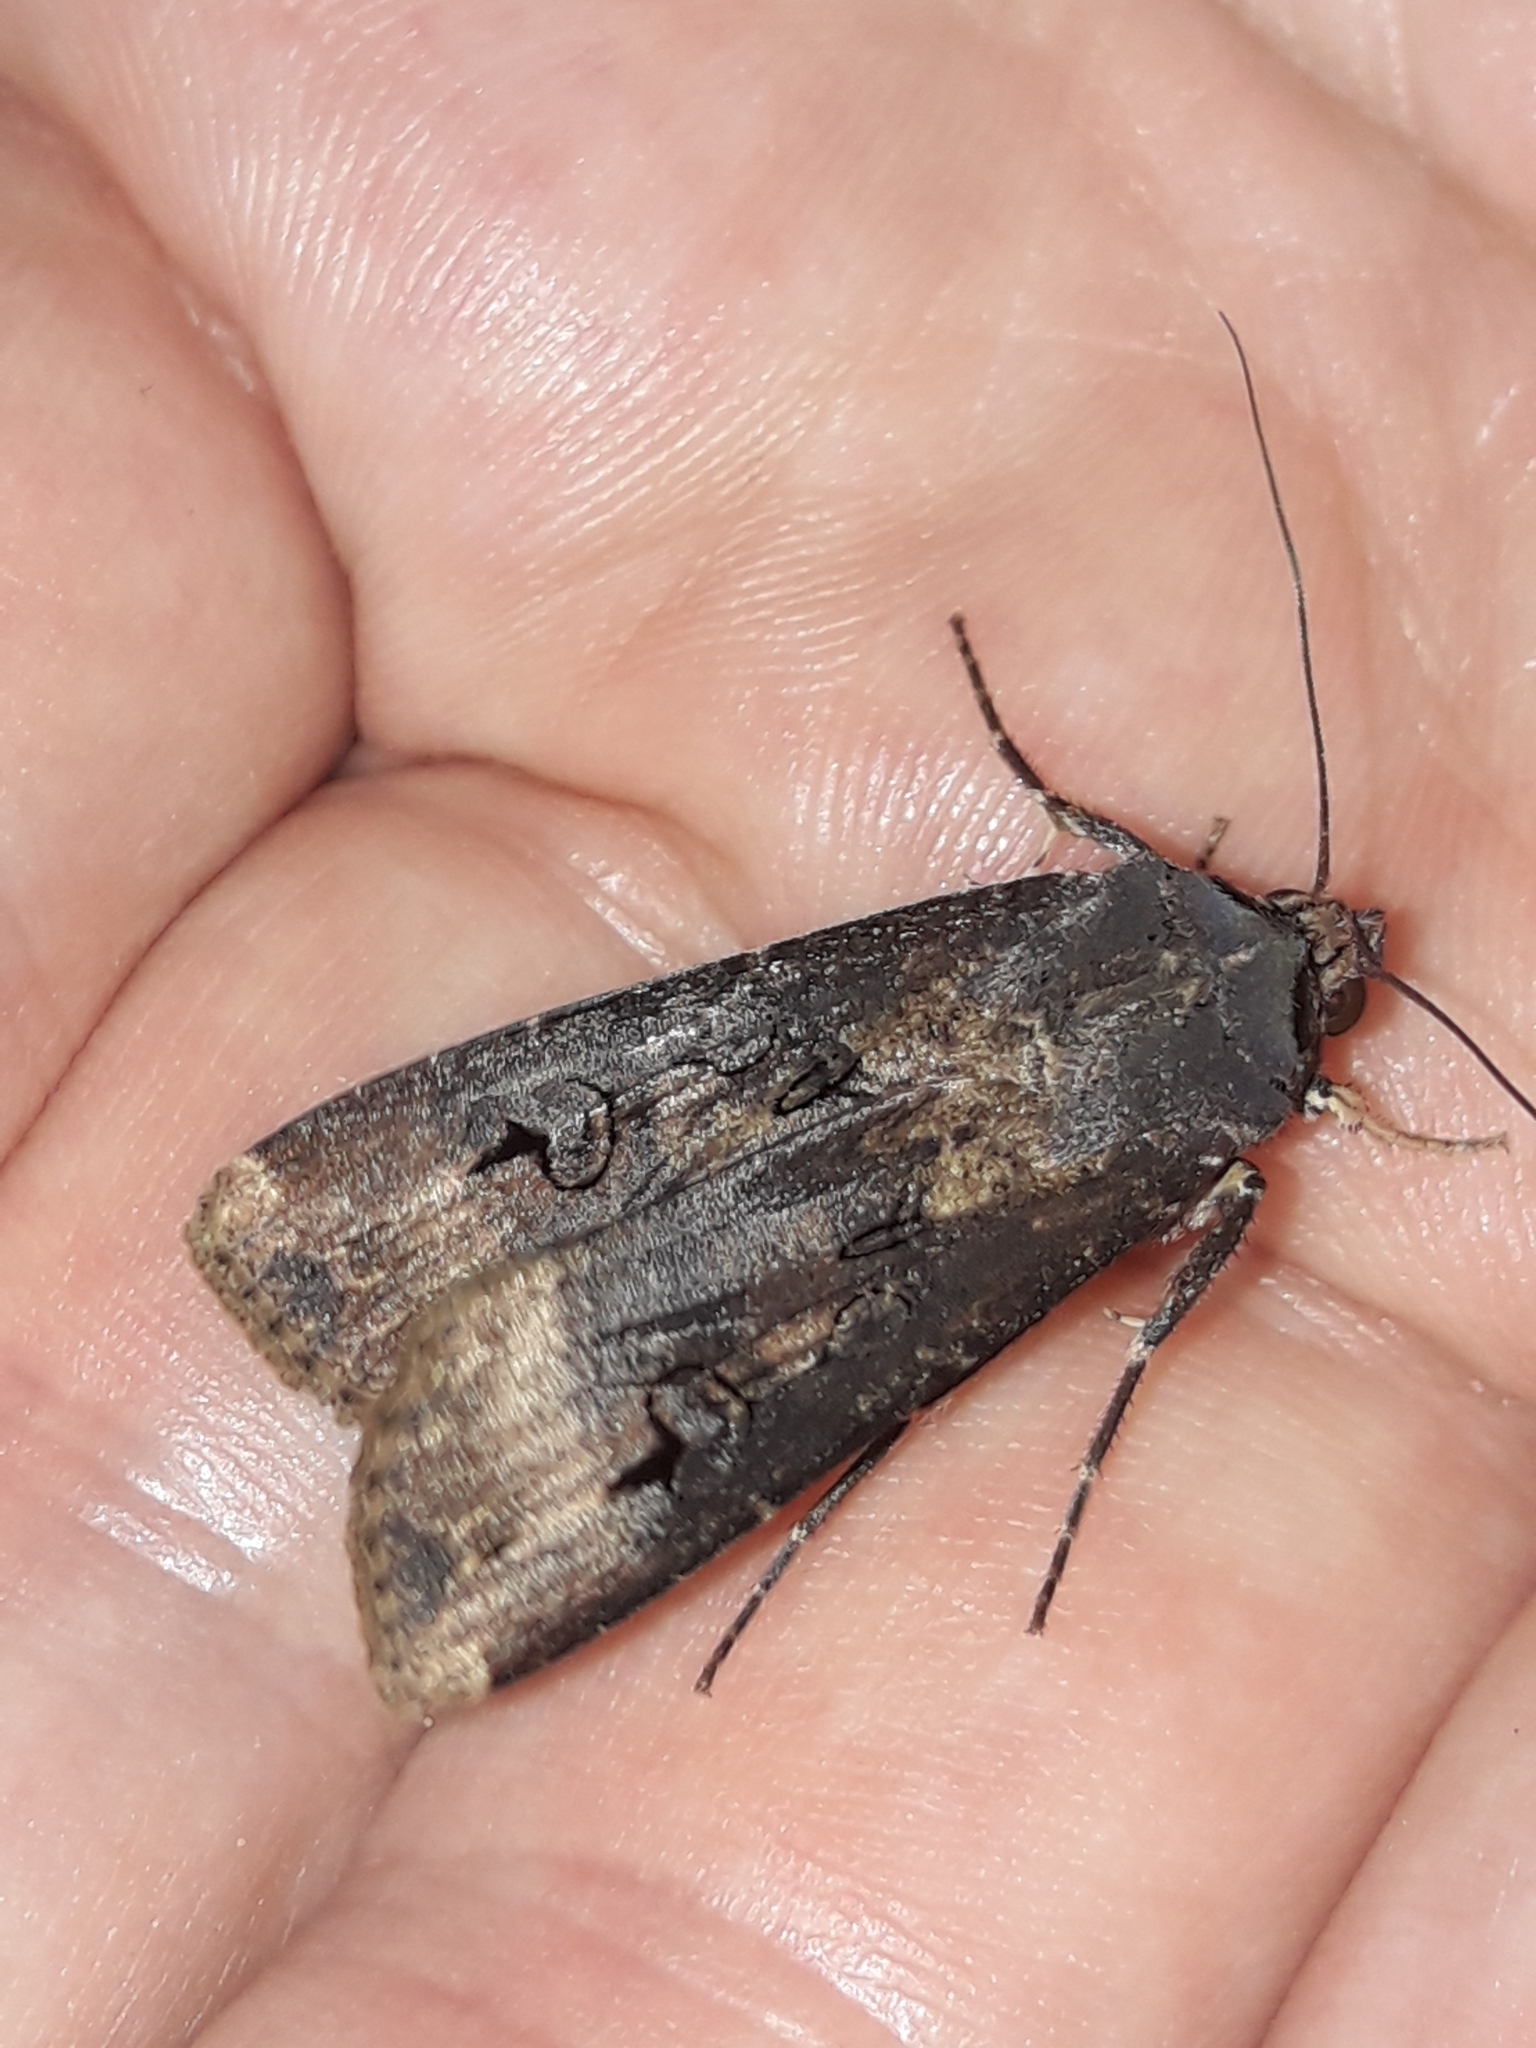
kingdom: Animalia
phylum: Arthropoda
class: Insecta
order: Lepidoptera
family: Noctuidae
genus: Agrotis
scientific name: Agrotis ipsilon
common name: Dark sword-grass
